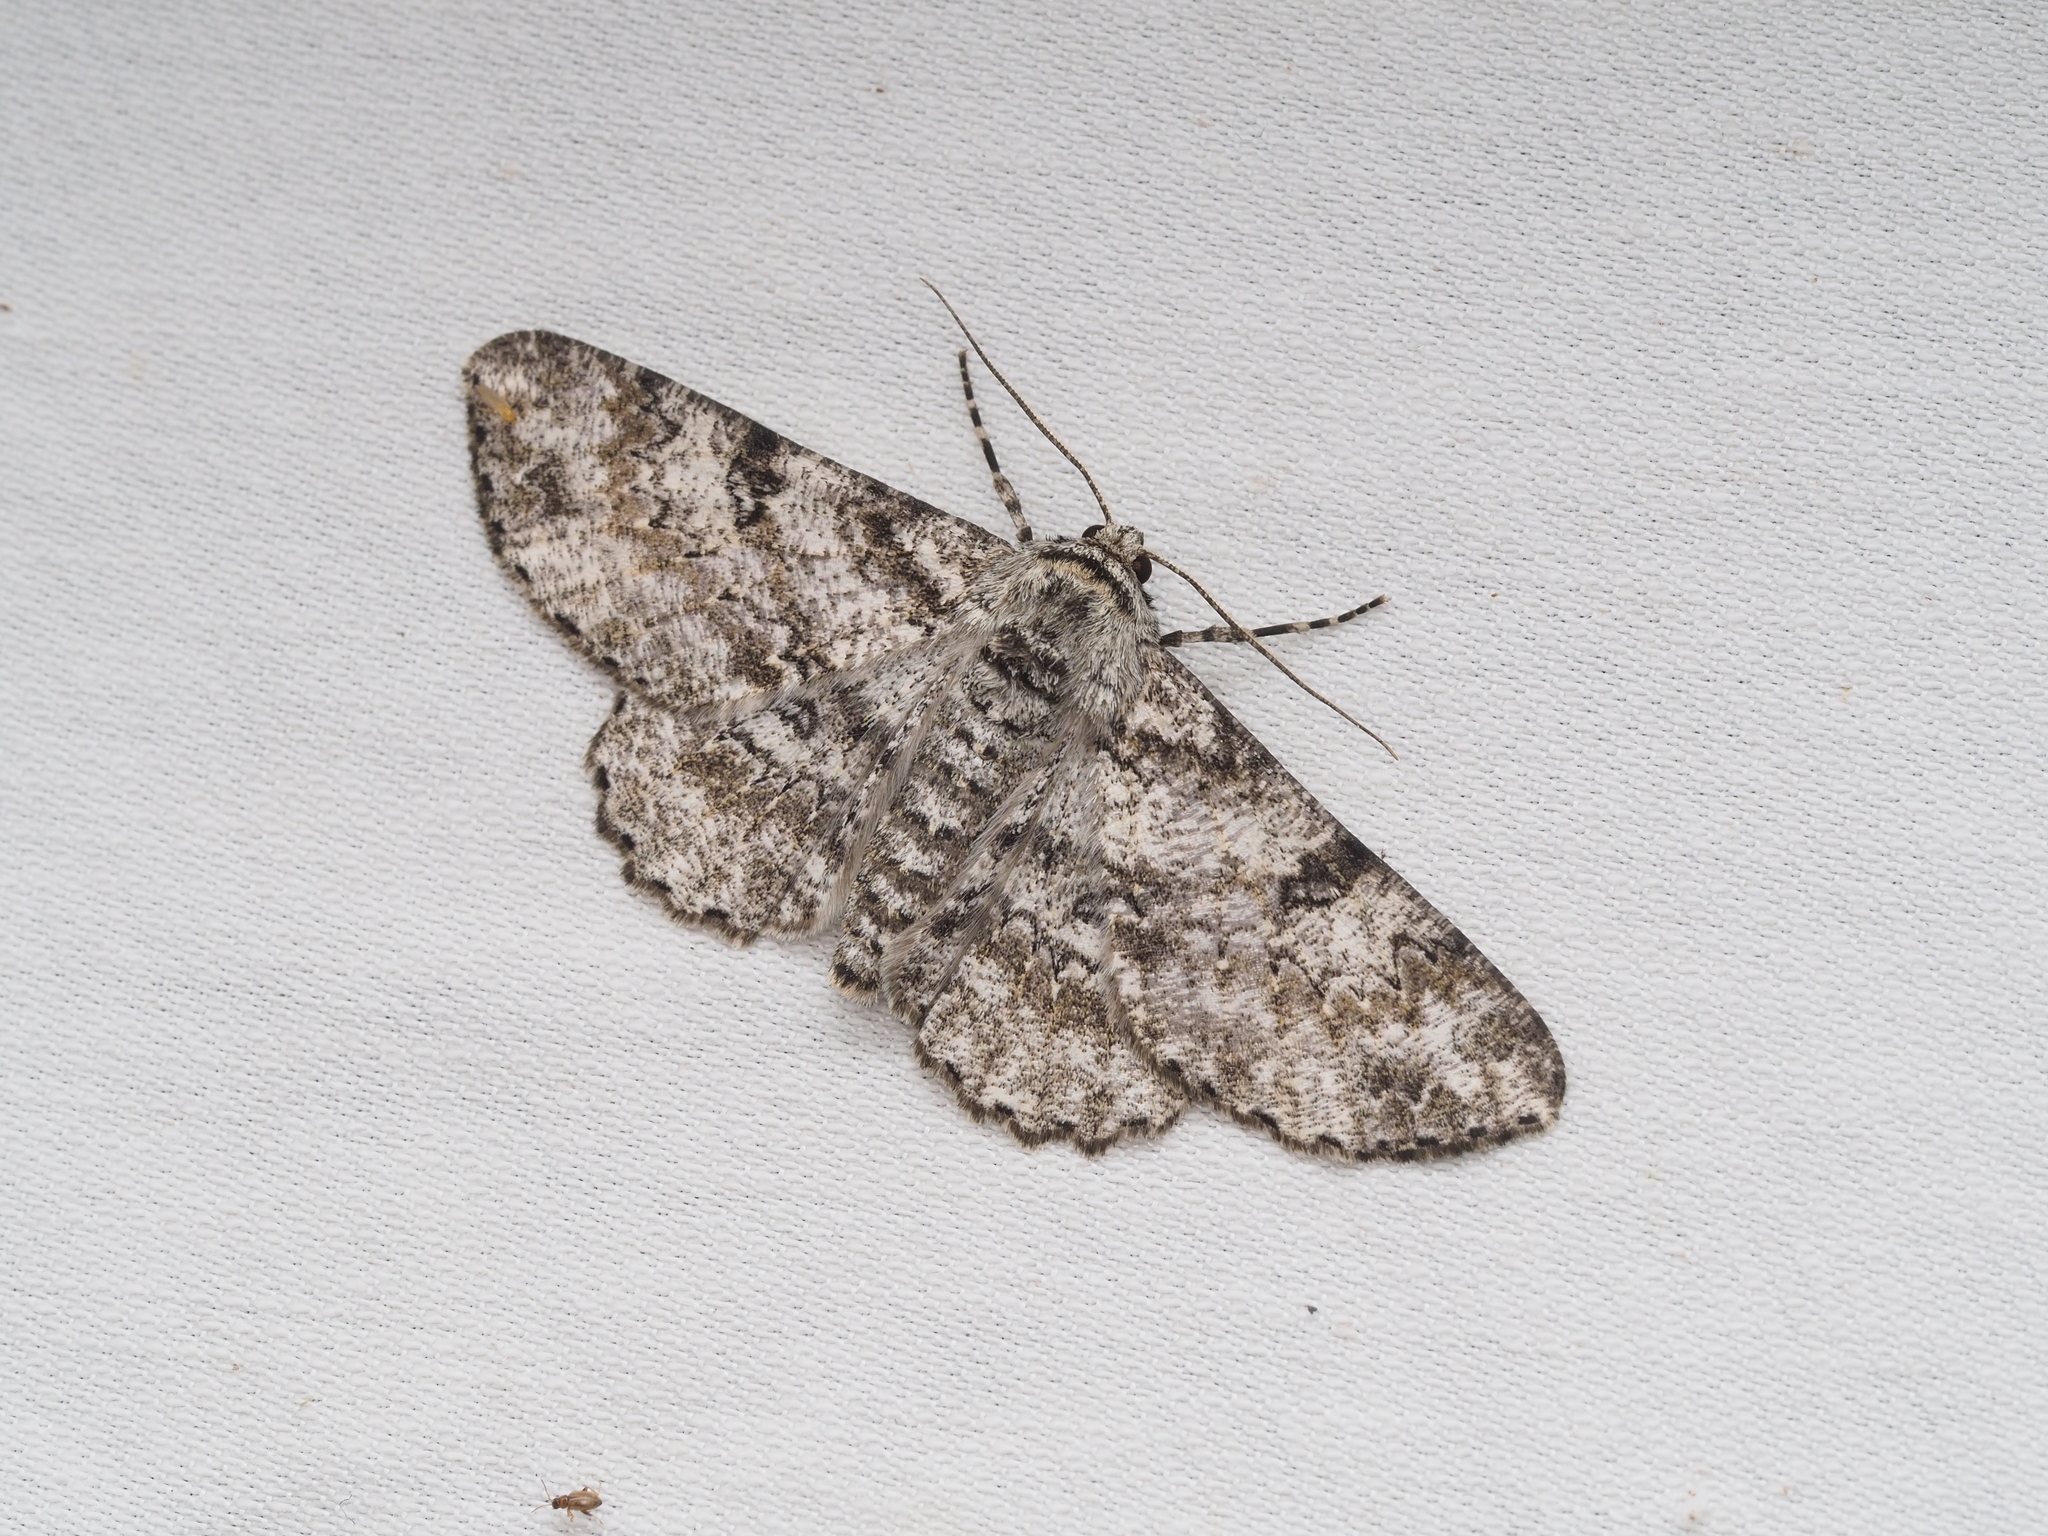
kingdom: Animalia
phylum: Arthropoda
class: Insecta
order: Lepidoptera
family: Geometridae
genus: Ascotis
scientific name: Ascotis selenaria
